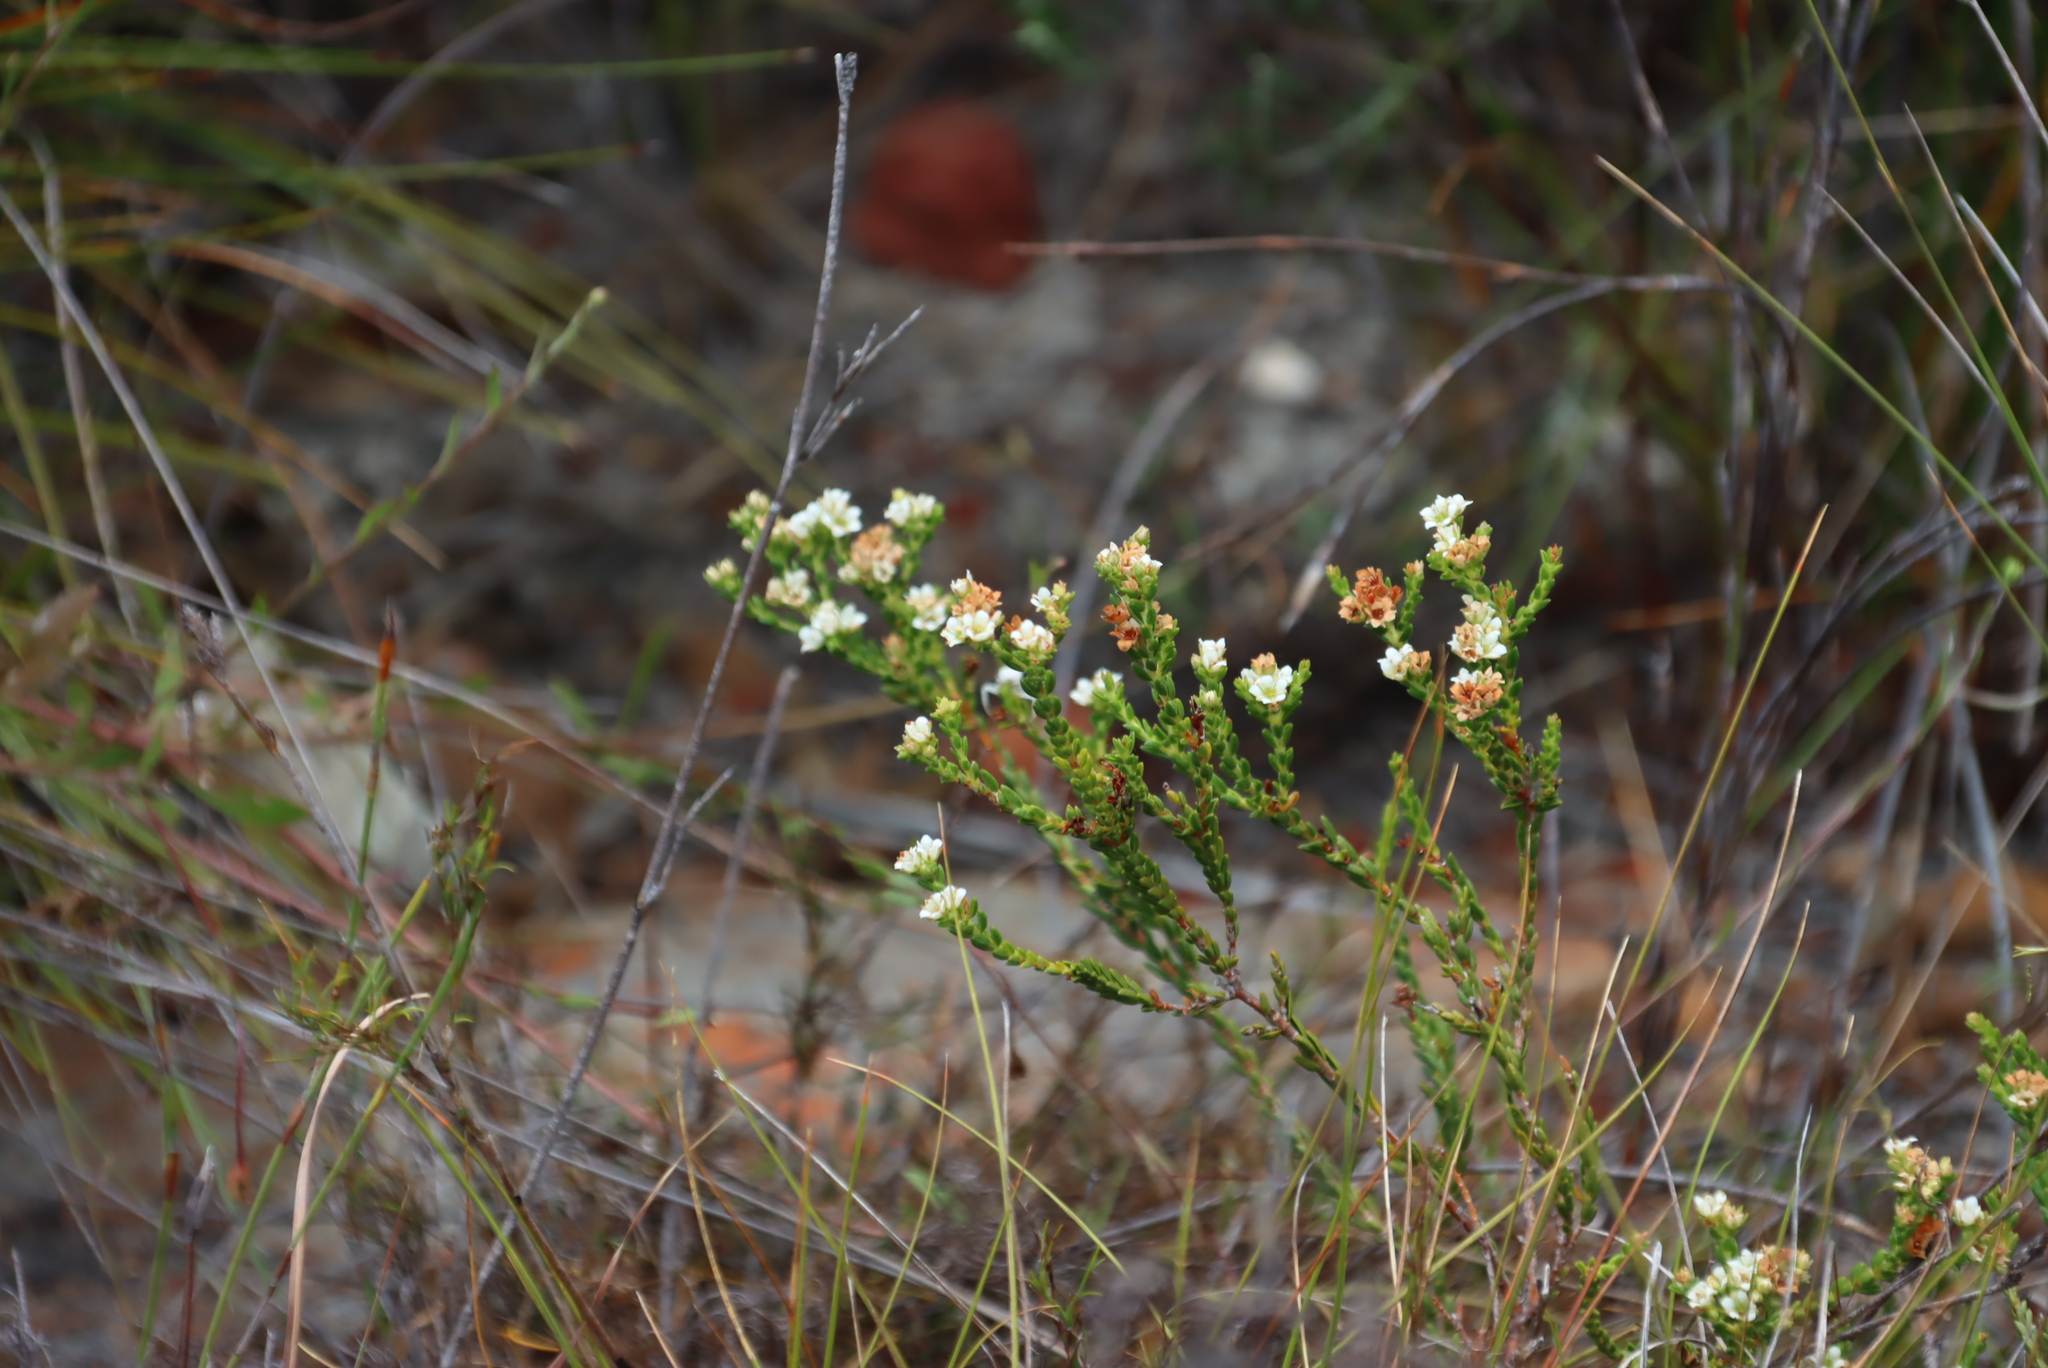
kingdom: Plantae
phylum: Tracheophyta
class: Magnoliopsida
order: Sapindales
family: Rutaceae
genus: Diosma
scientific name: Diosma oppositifolia
